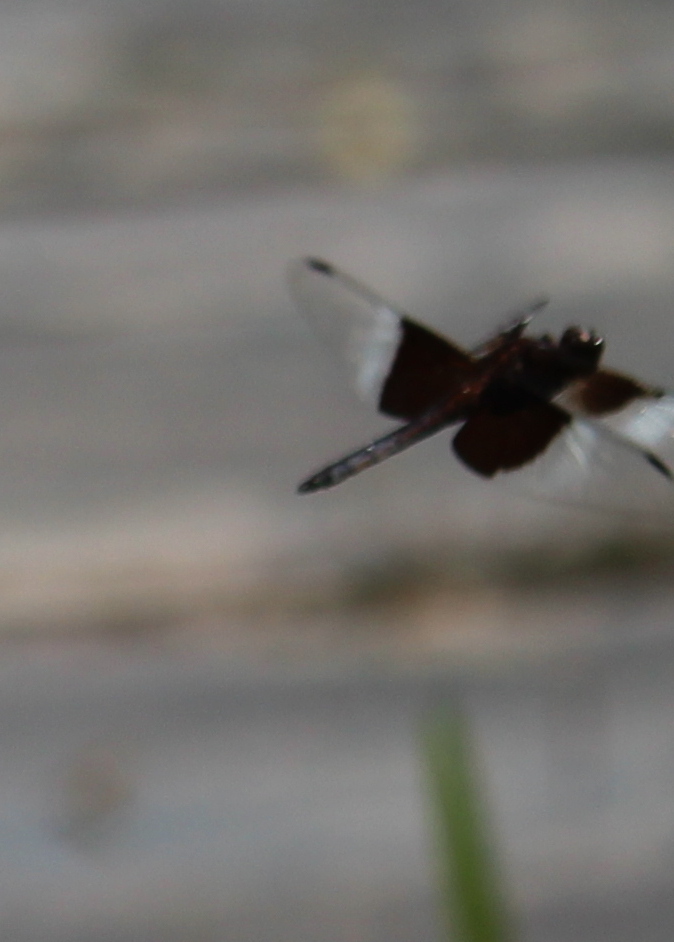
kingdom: Animalia
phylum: Arthropoda
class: Insecta
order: Odonata
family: Libellulidae
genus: Libellula
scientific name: Libellula luctuosa
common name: Widow skimmer
